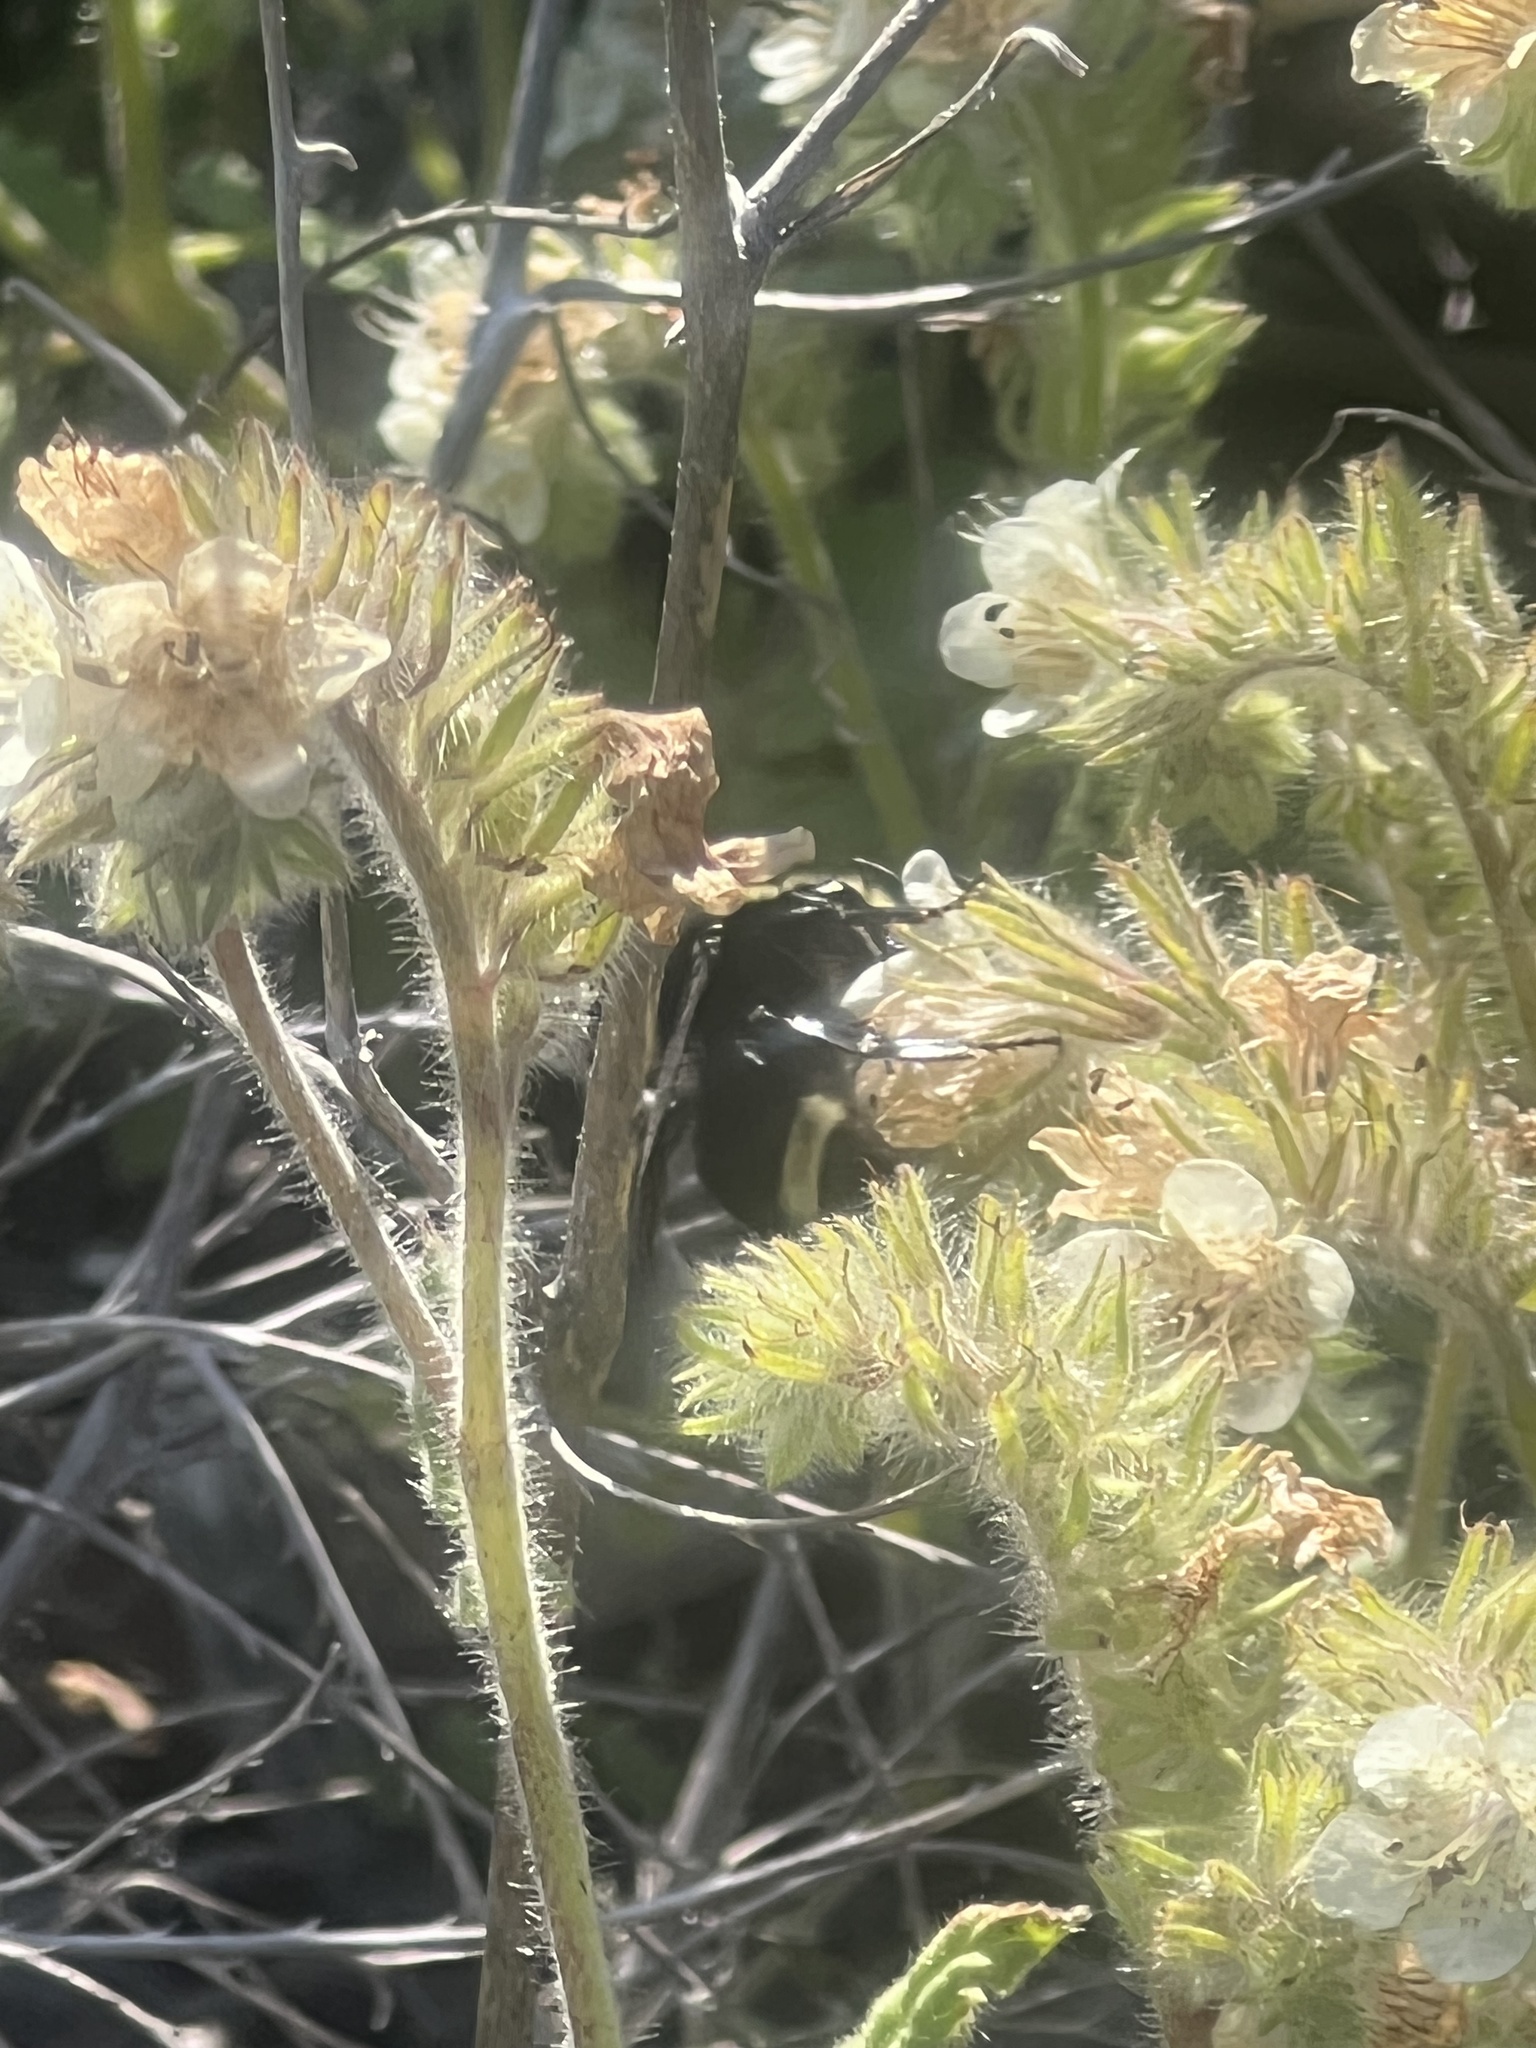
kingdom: Plantae
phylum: Tracheophyta
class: Magnoliopsida
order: Boraginales
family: Hydrophyllaceae
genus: Phacelia
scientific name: Phacelia cicutaria
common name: Caterpillar phacelia
